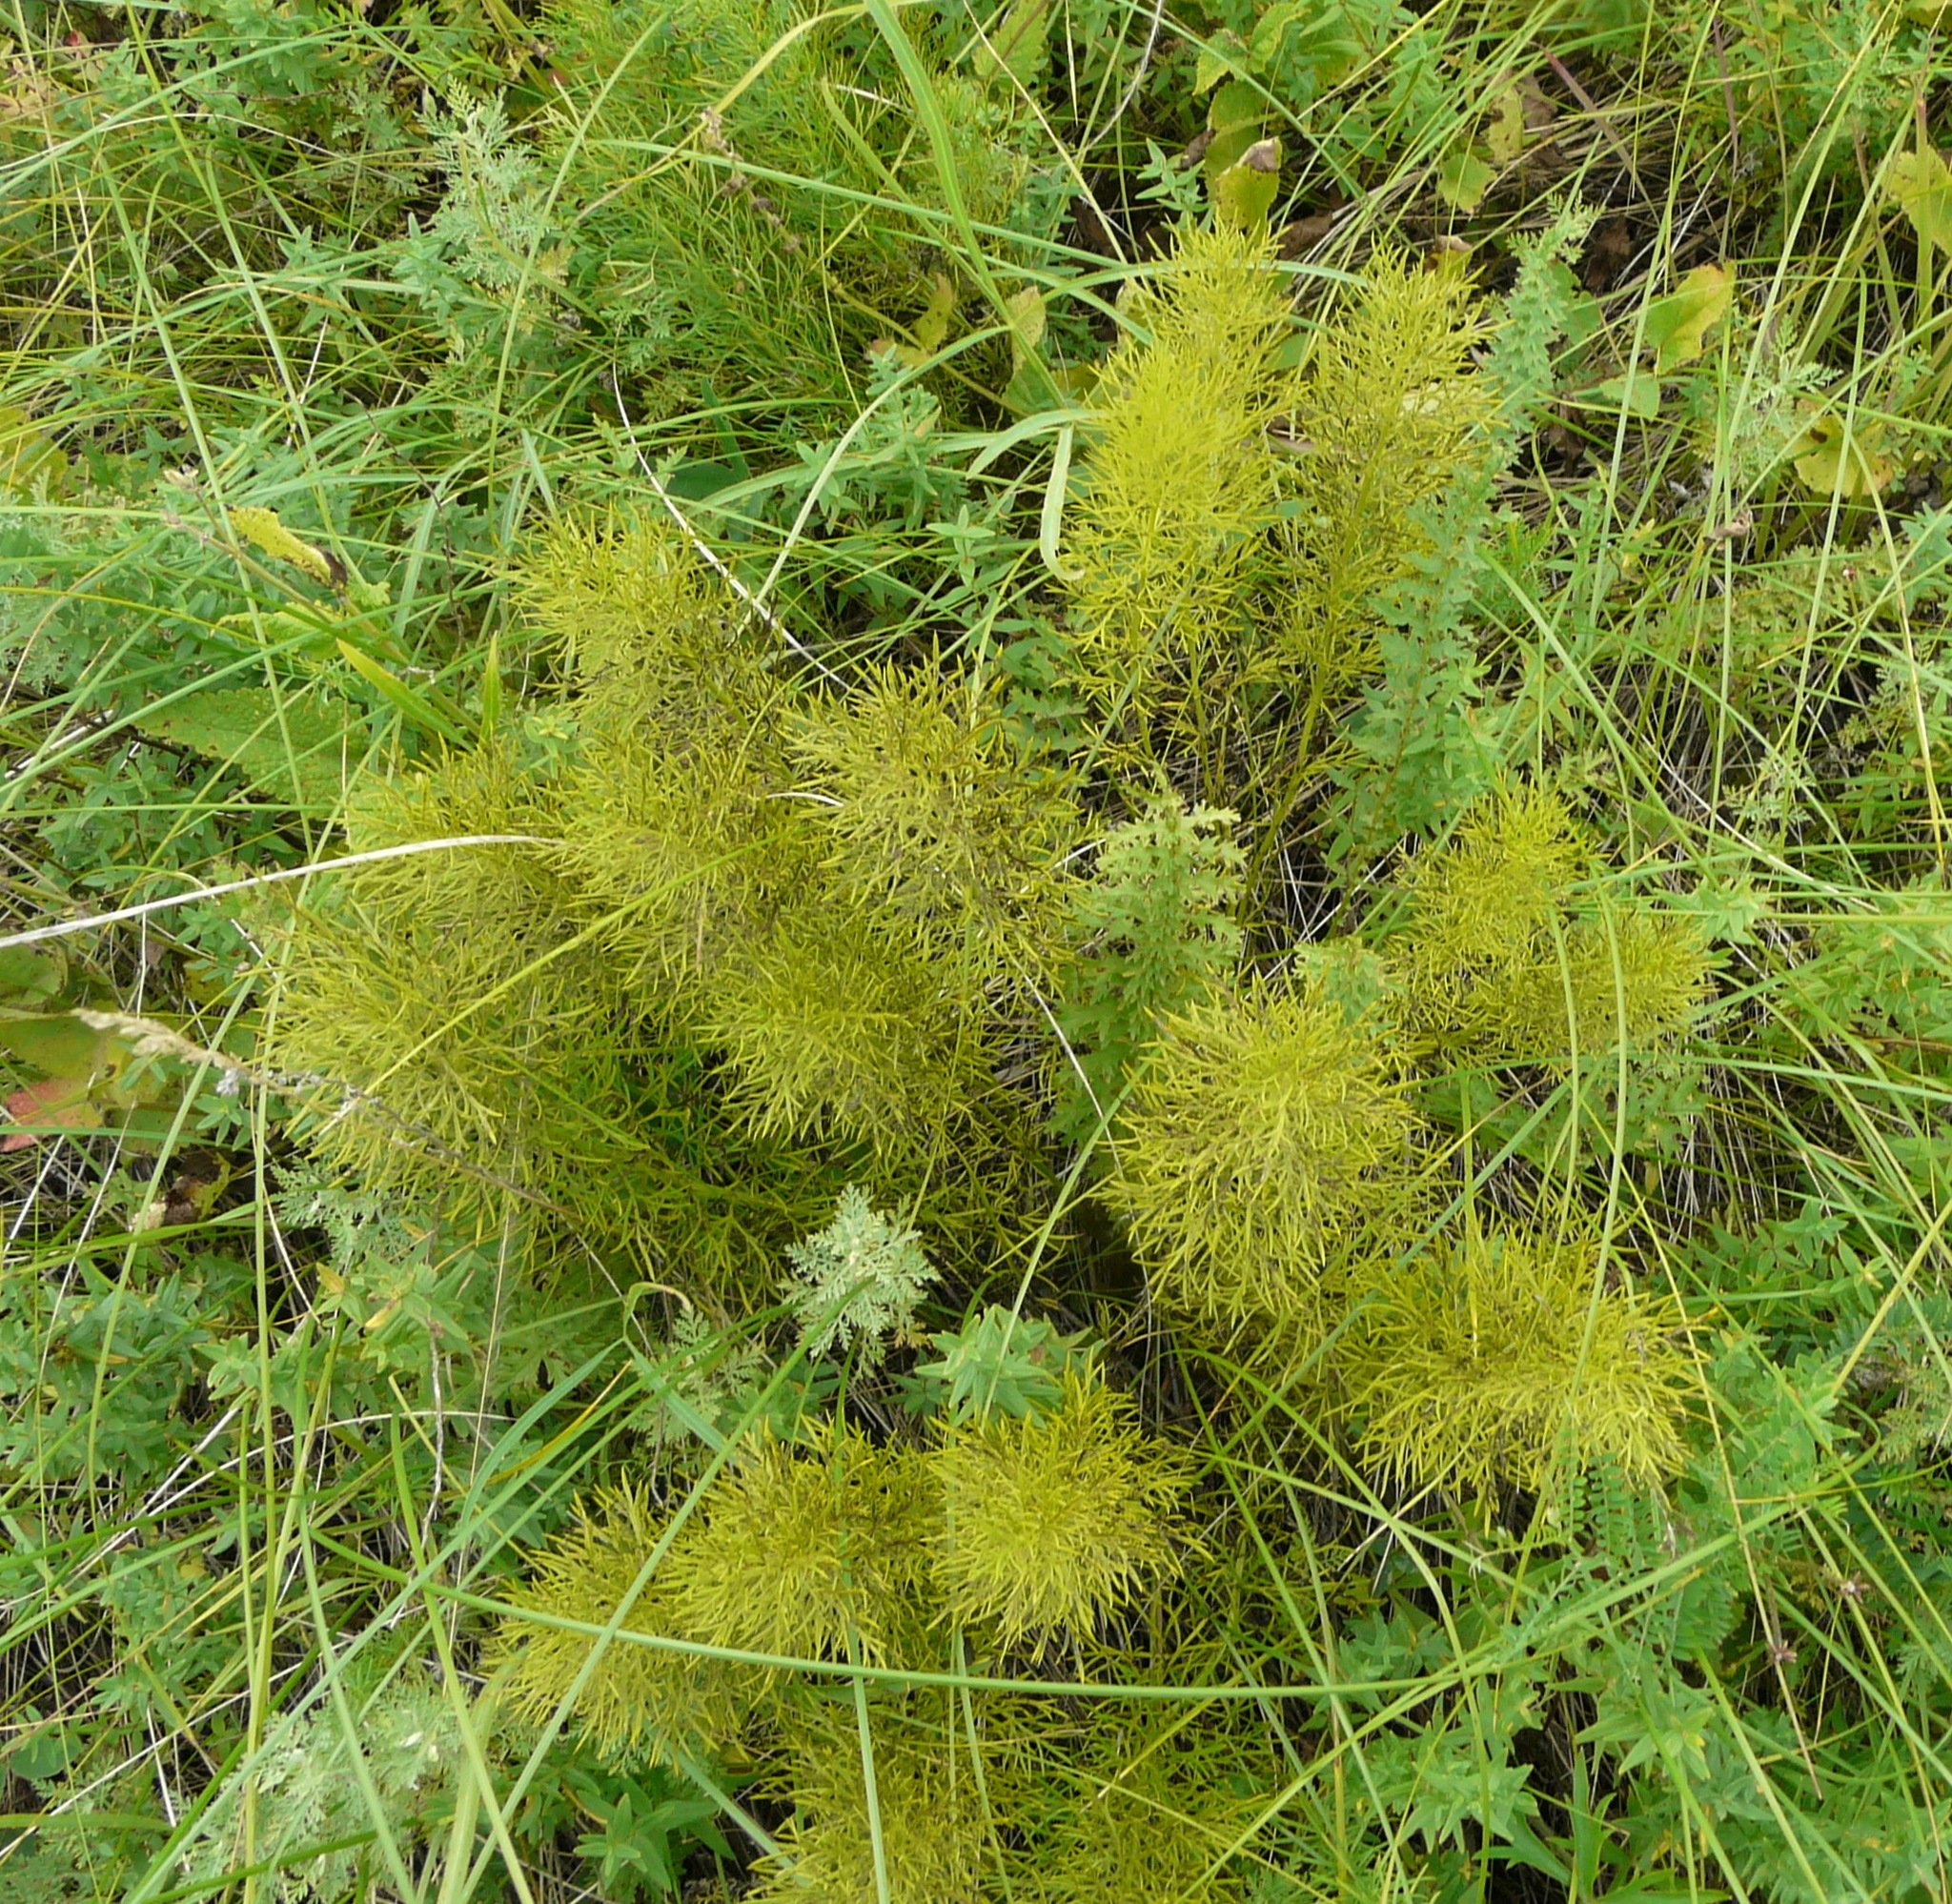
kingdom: Plantae
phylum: Tracheophyta
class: Magnoliopsida
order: Ranunculales
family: Ranunculaceae
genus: Adonis
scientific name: Adonis vernalis
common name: Yellow pheasants-eye
